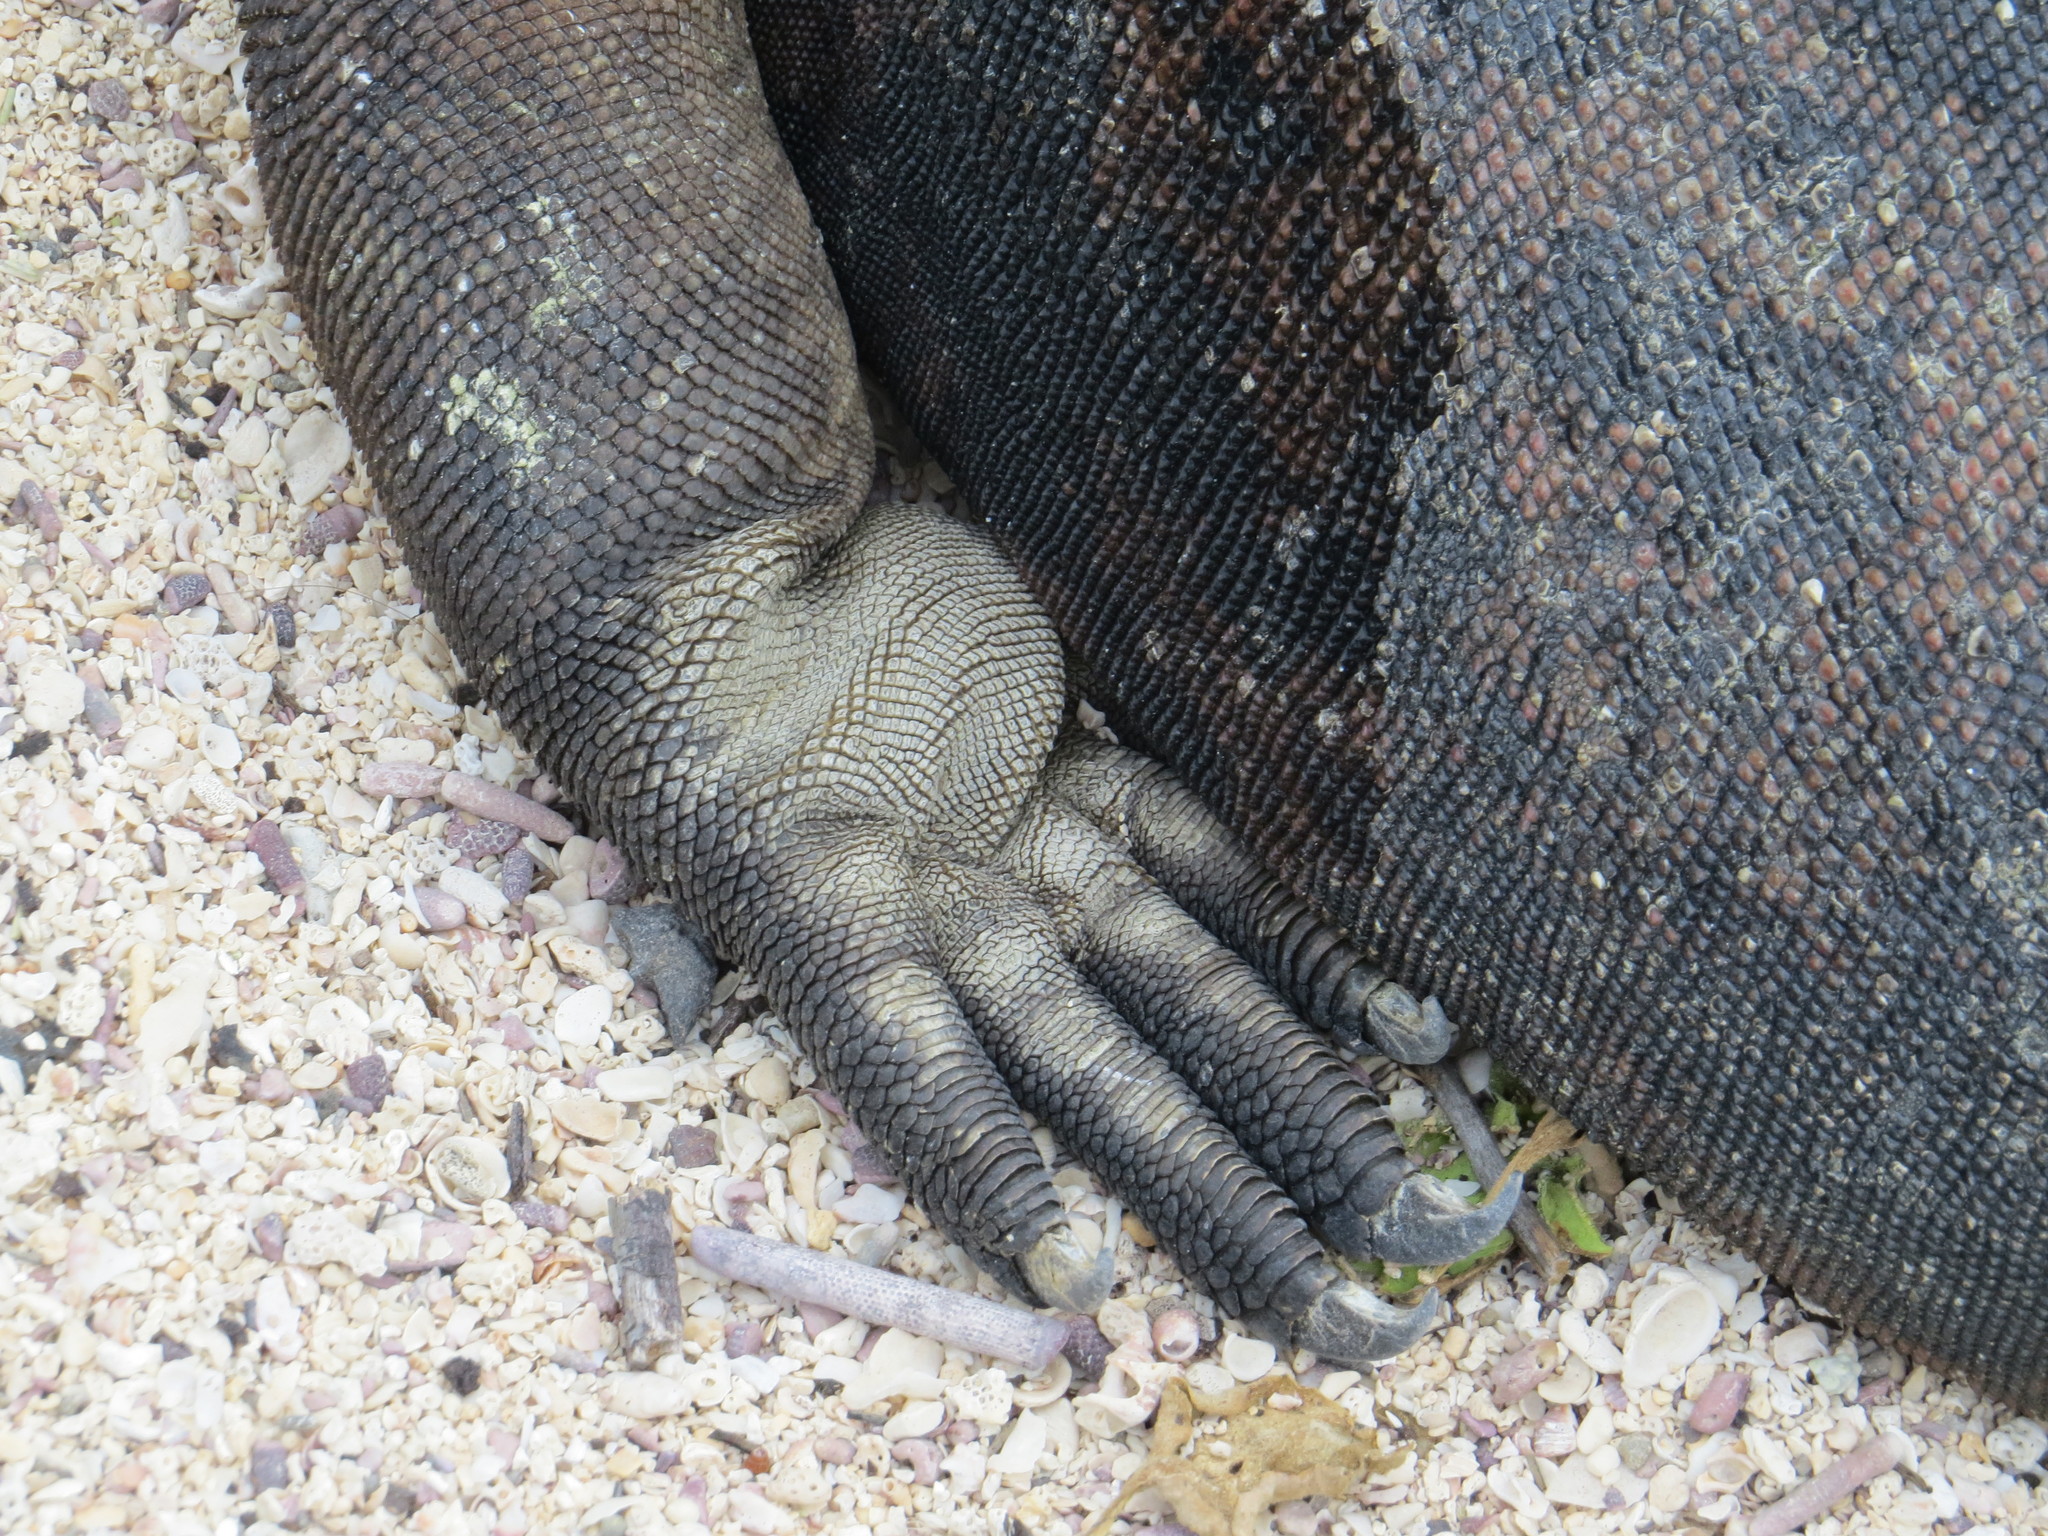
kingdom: Animalia
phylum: Chordata
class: Squamata
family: Iguanidae
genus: Amblyrhynchus
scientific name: Amblyrhynchus cristatus
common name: Marine iguana
